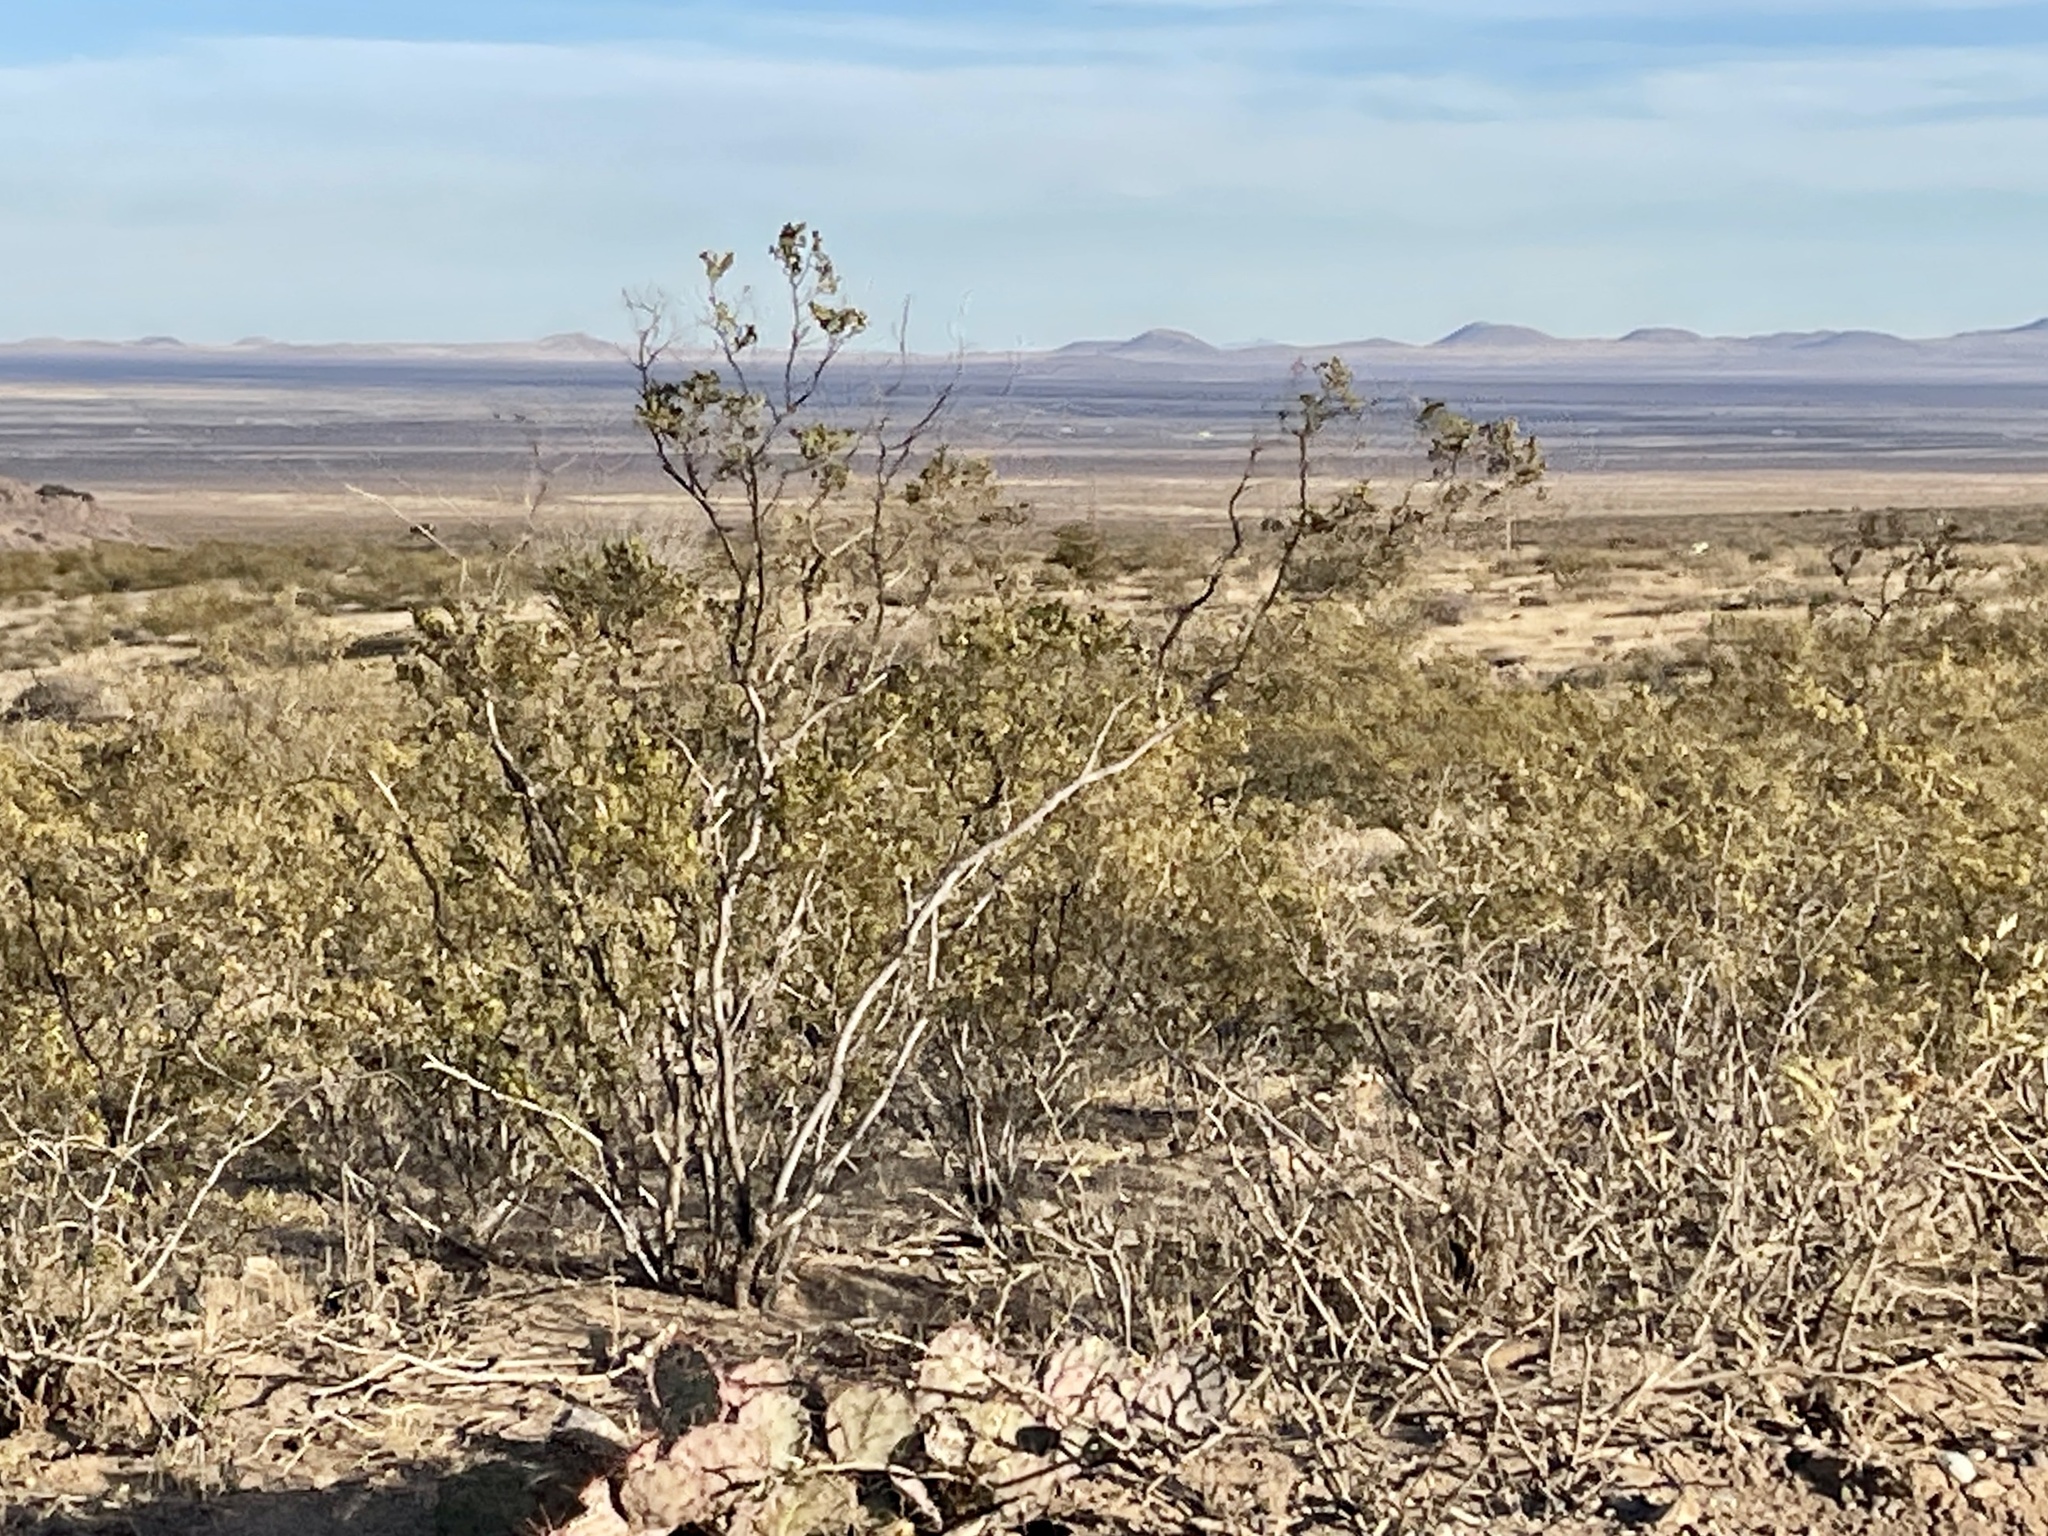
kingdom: Plantae
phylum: Tracheophyta
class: Magnoliopsida
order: Zygophyllales
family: Zygophyllaceae
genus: Larrea
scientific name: Larrea tridentata
